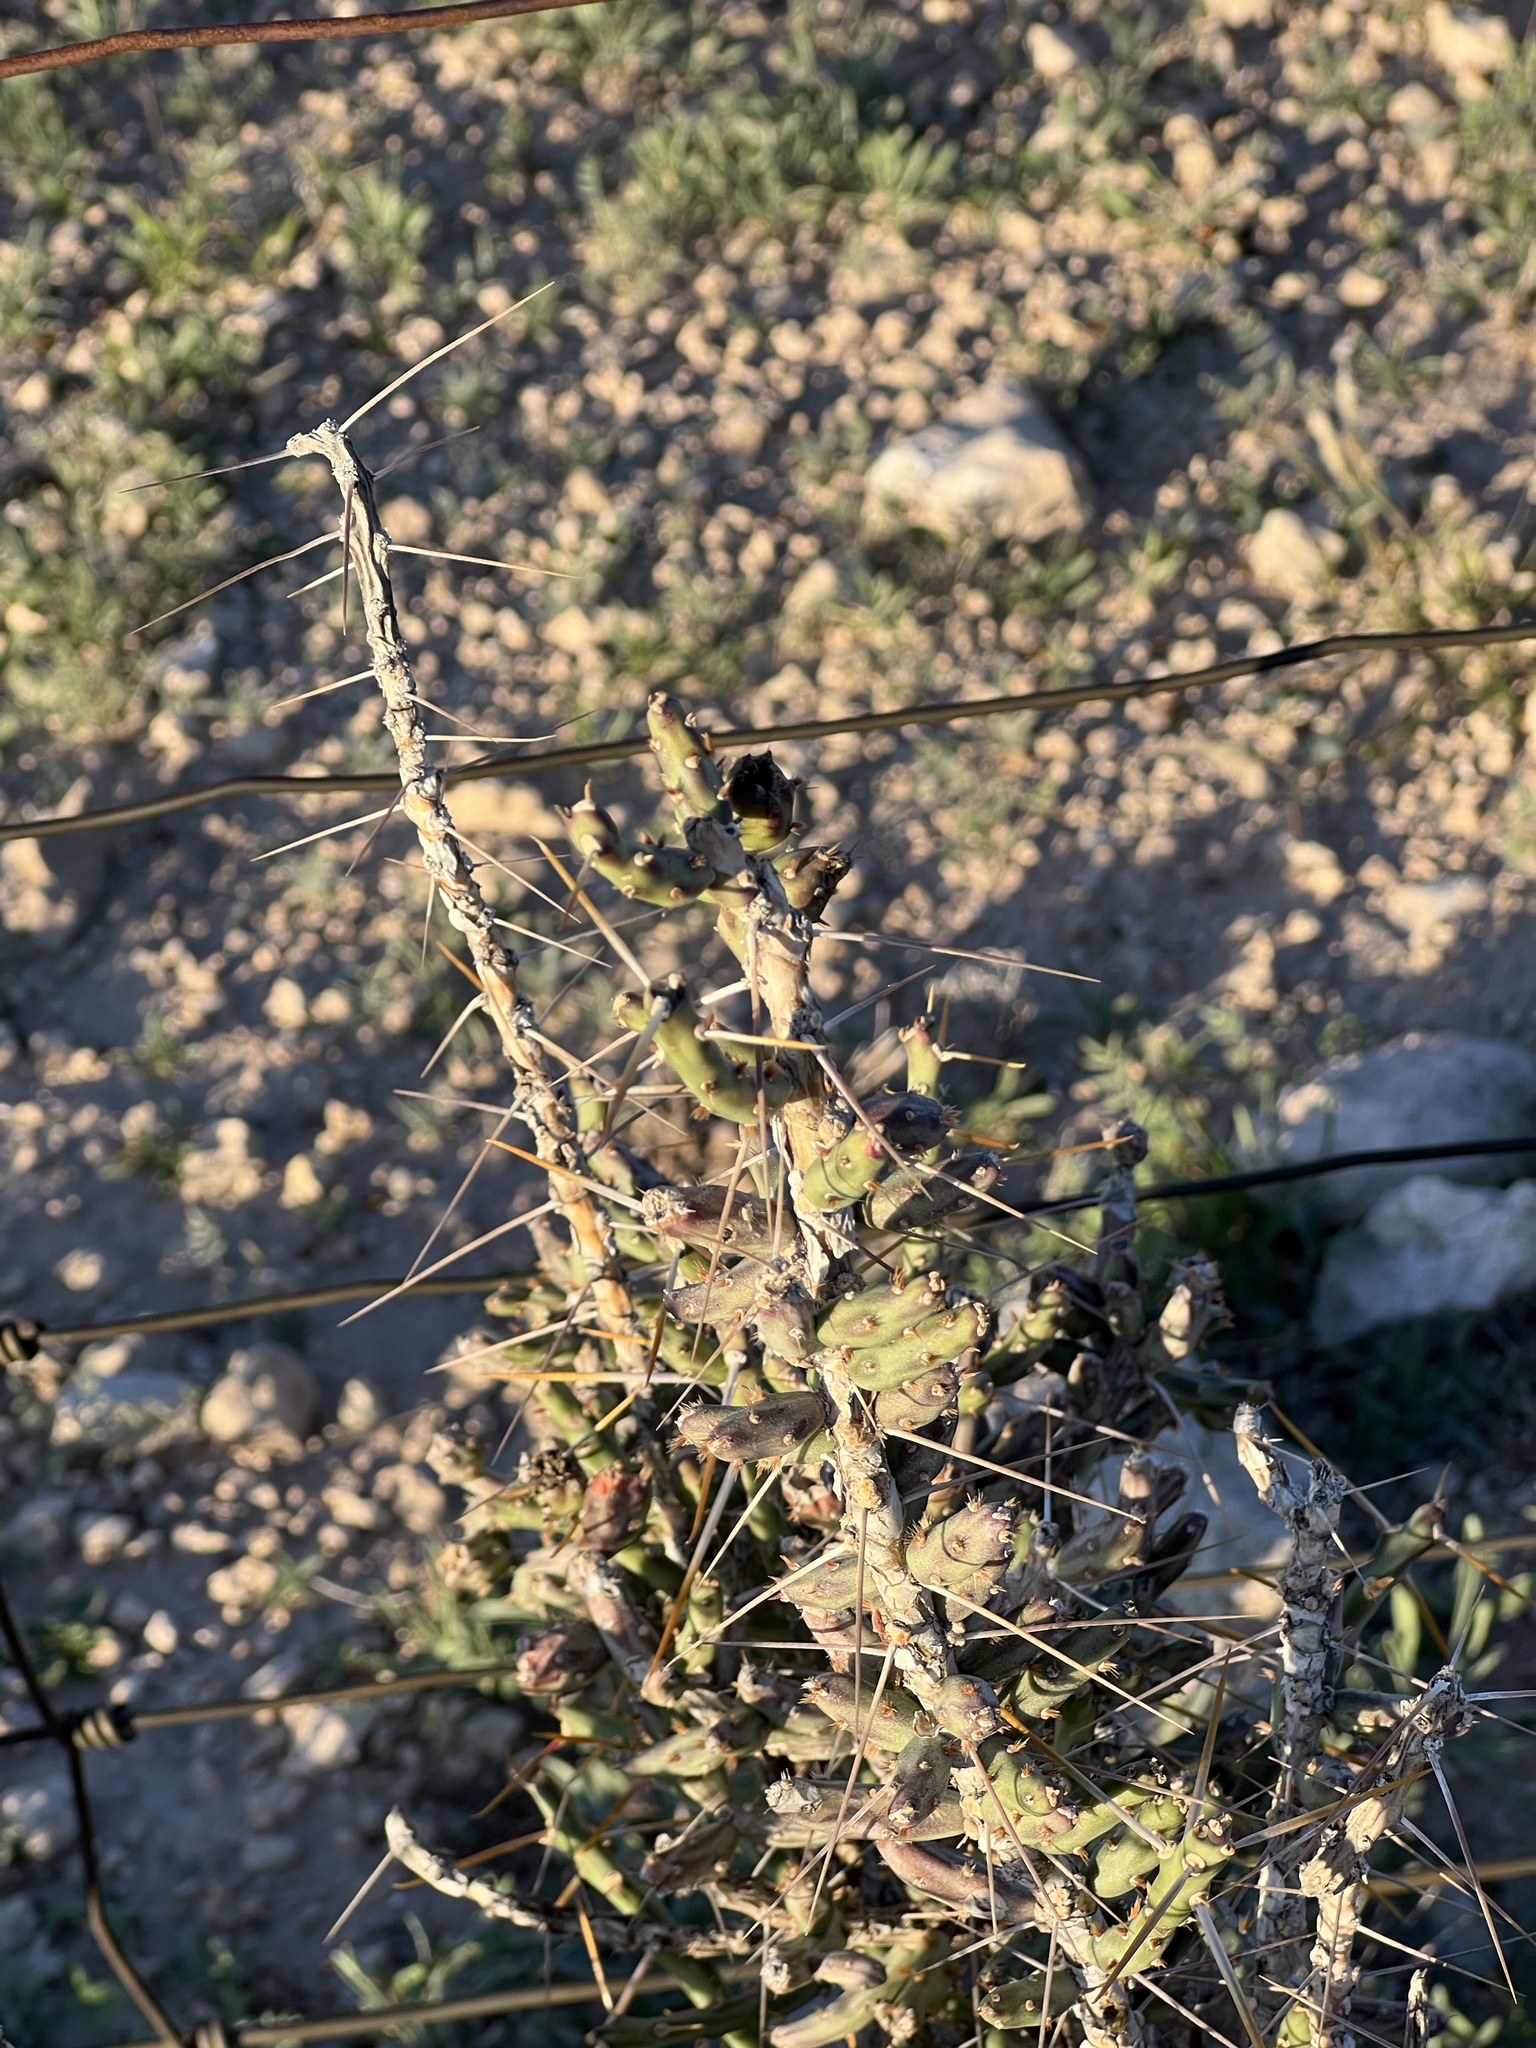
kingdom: Plantae
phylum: Tracheophyta
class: Magnoliopsida
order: Caryophyllales
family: Cactaceae
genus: Cylindropuntia
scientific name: Cylindropuntia leptocaulis
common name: Christmas cactus
